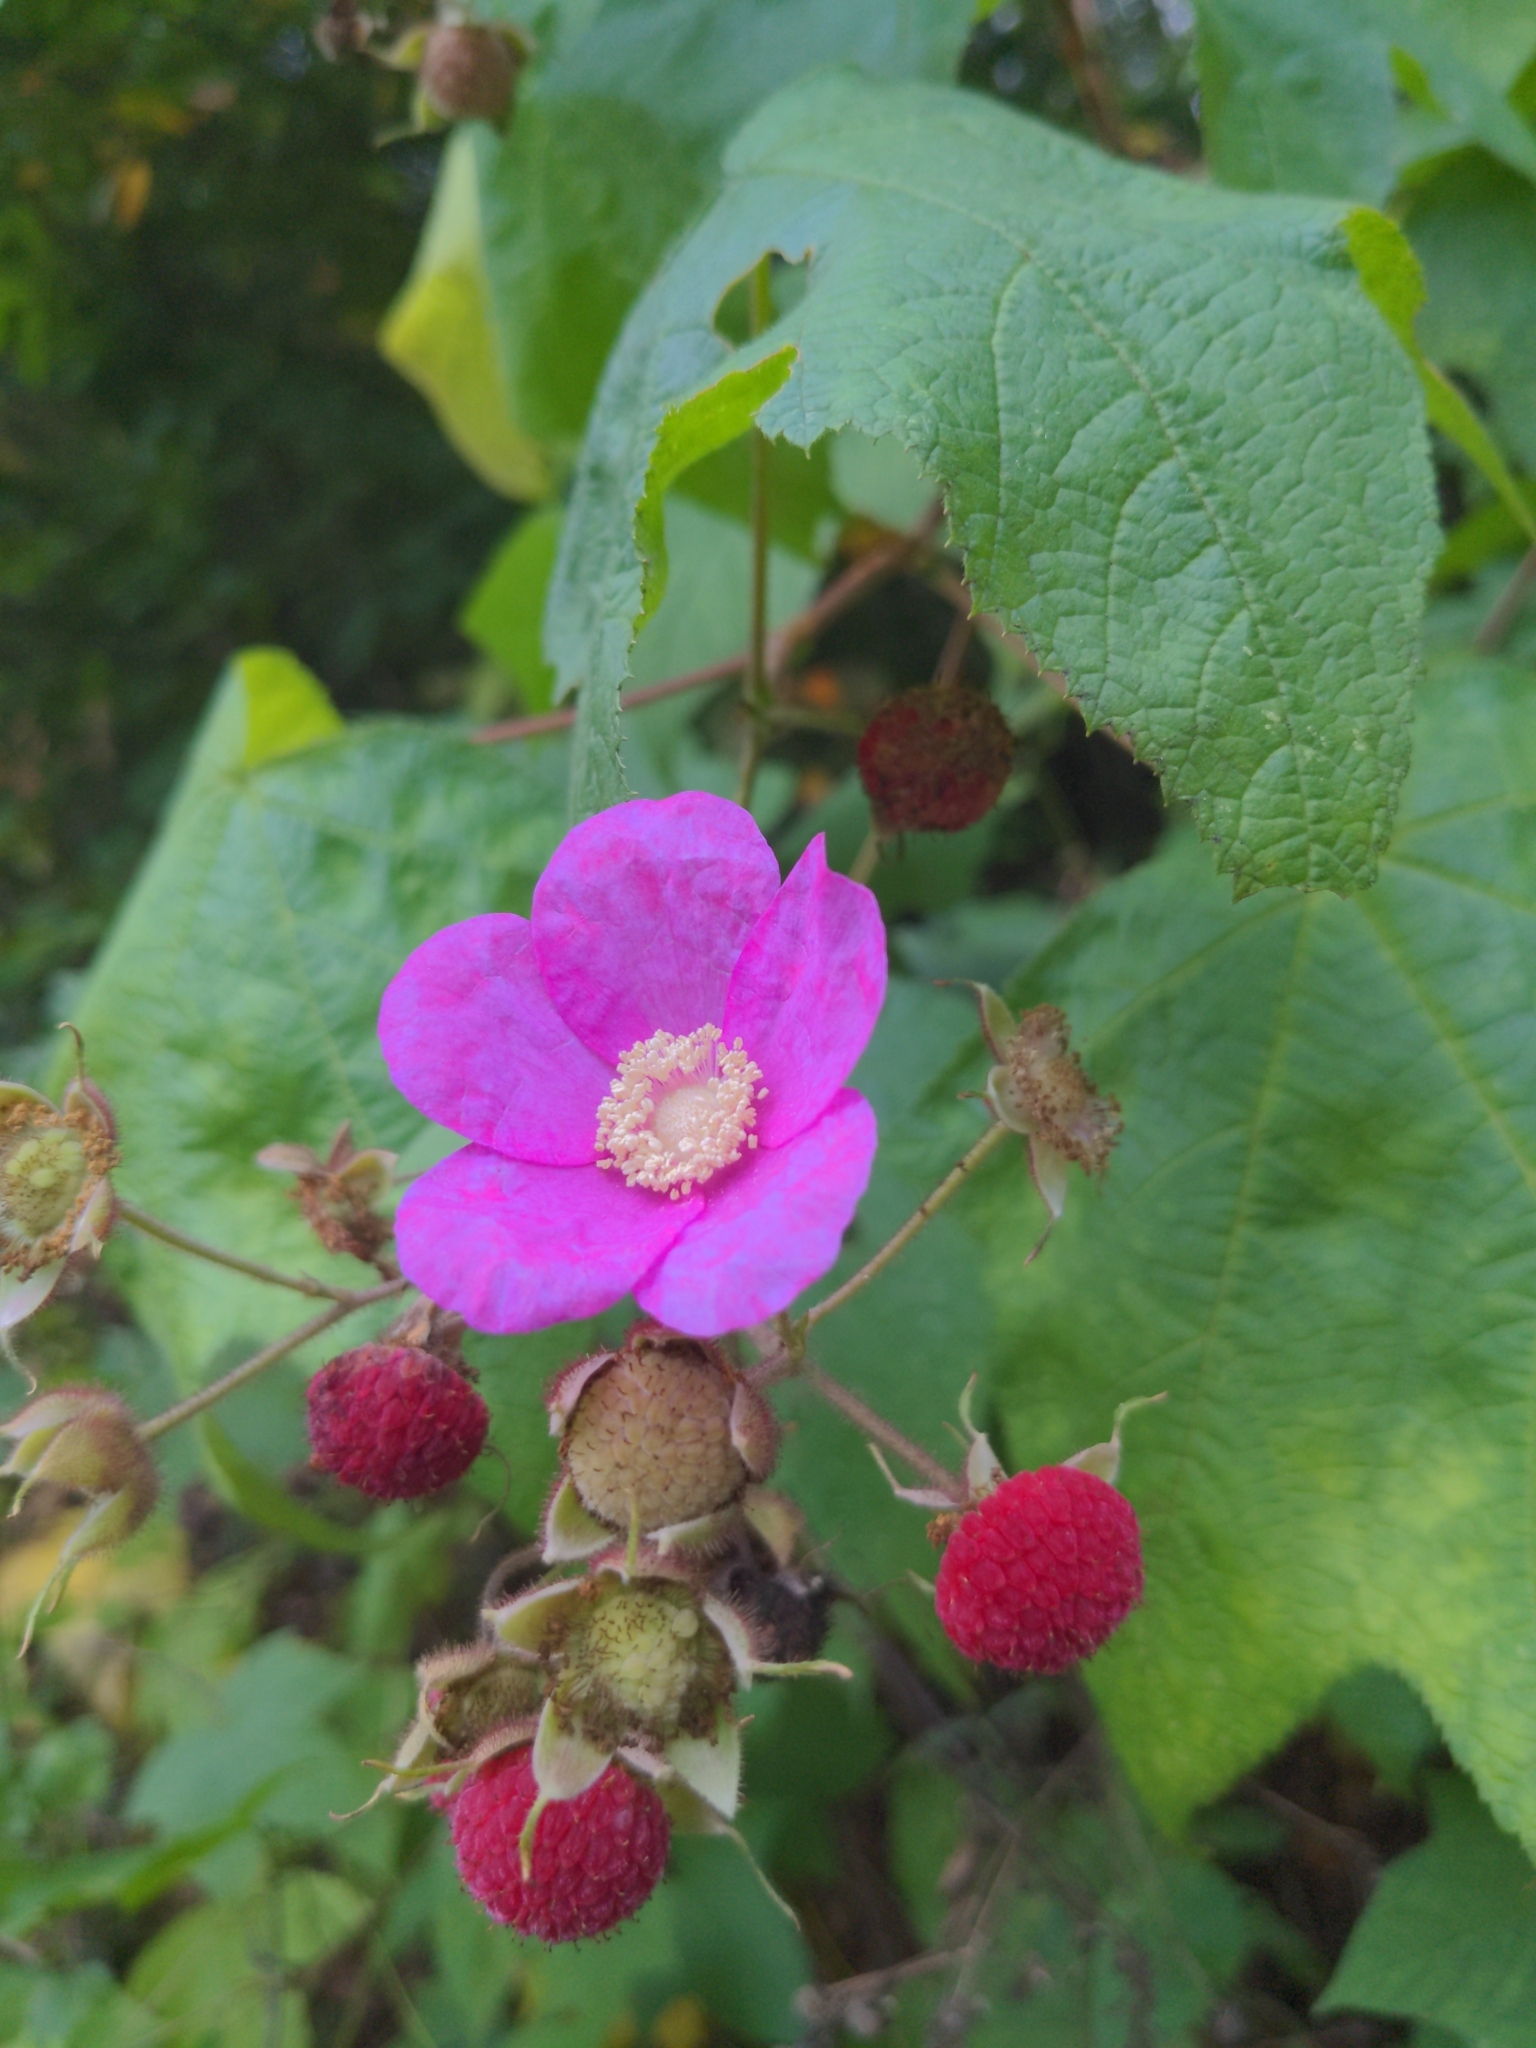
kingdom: Plantae
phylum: Tracheophyta
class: Magnoliopsida
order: Rosales
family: Rosaceae
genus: Rubus
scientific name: Rubus odoratus
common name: Purple-flowered raspberry
